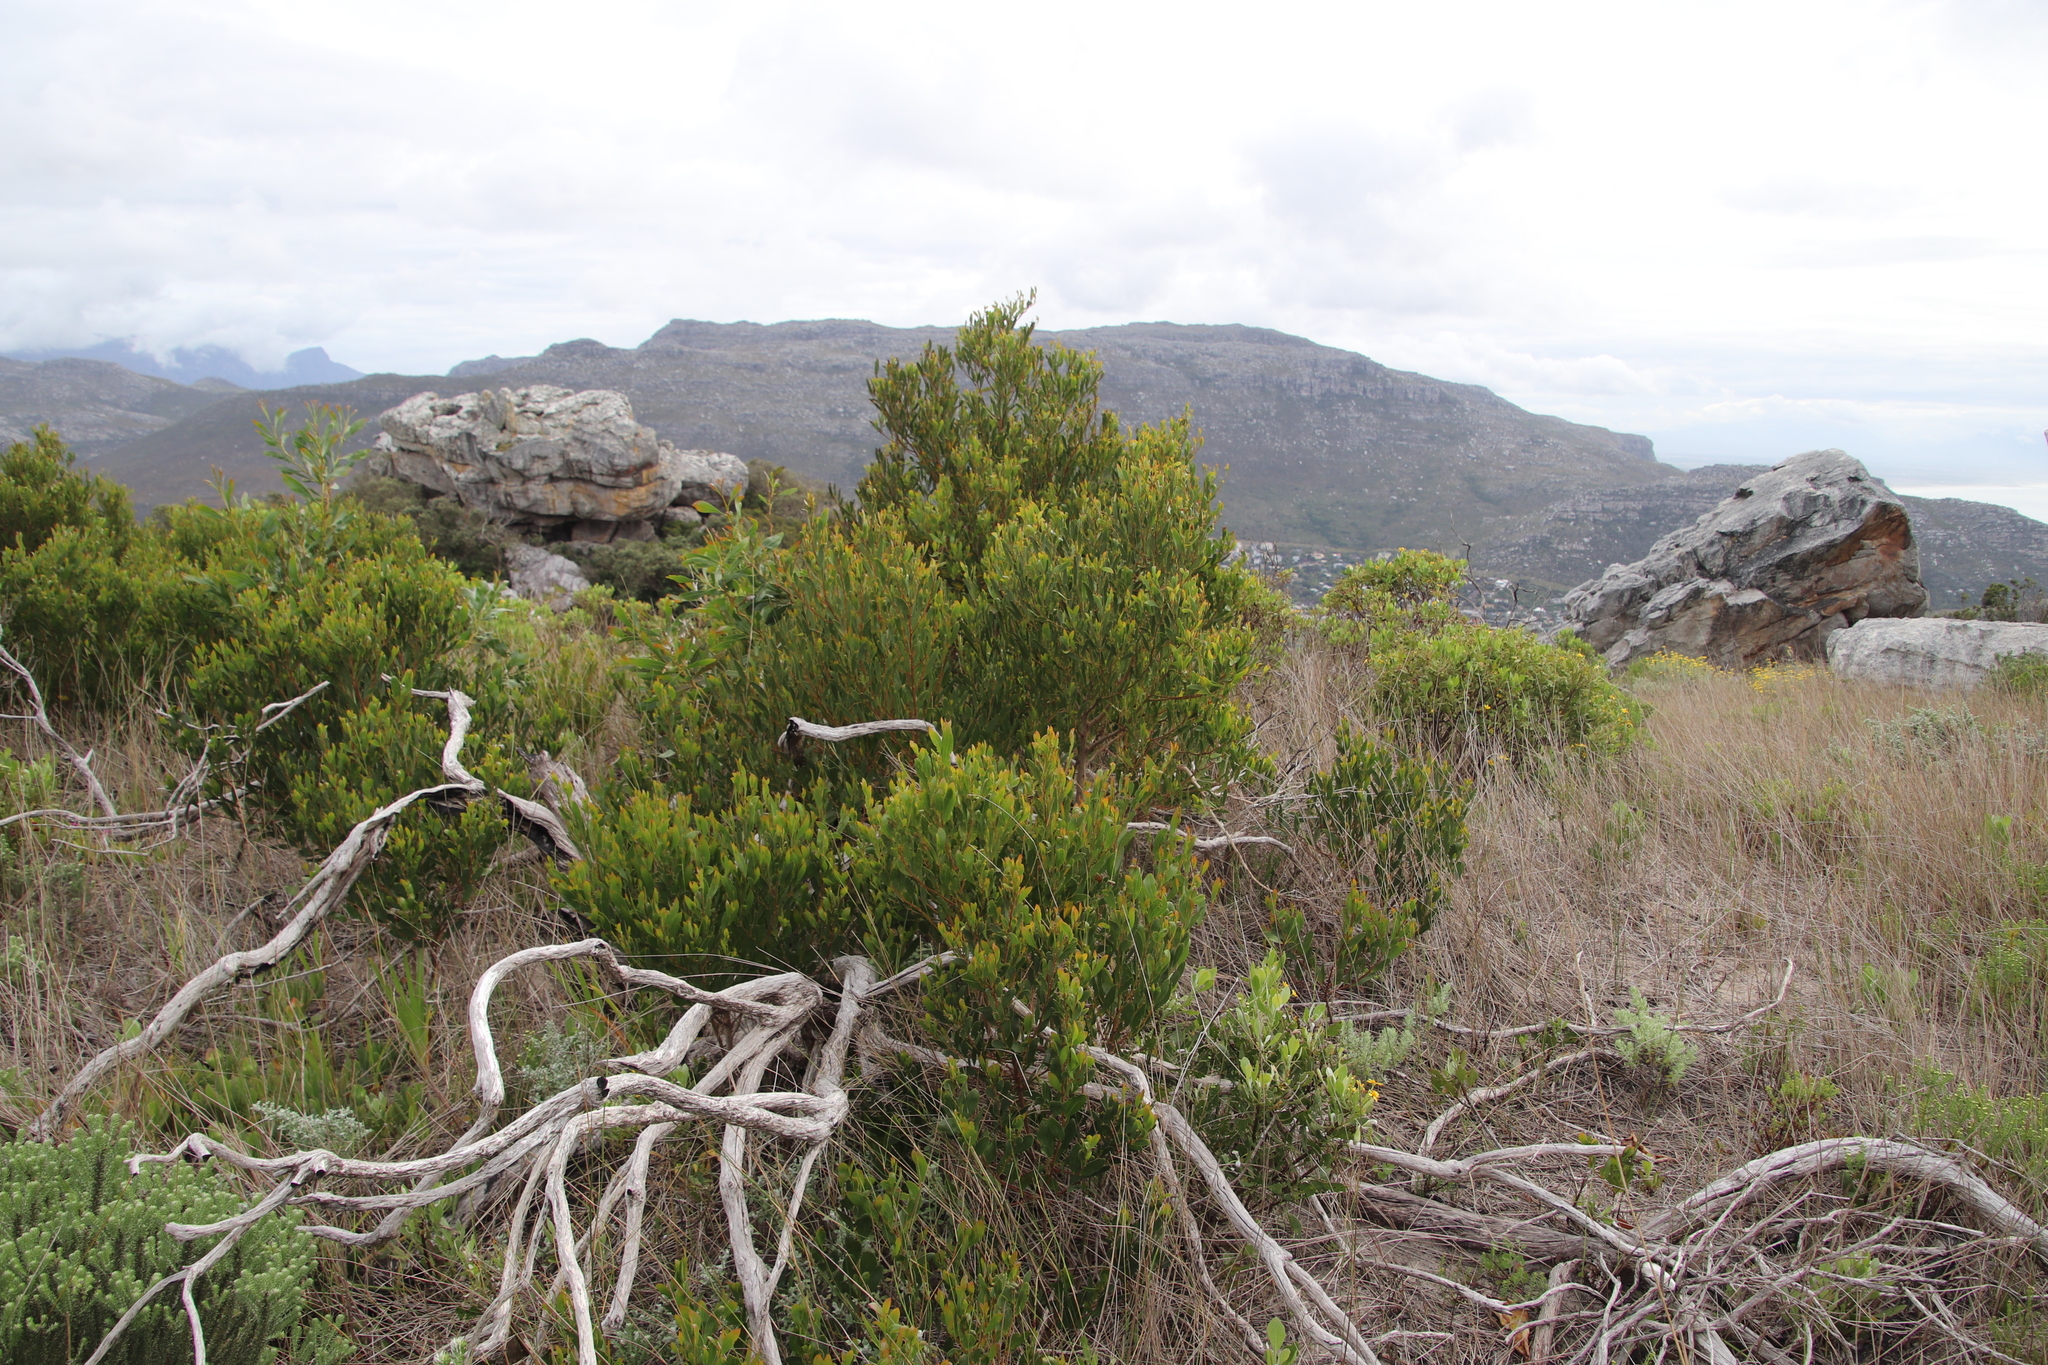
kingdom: Plantae
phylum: Tracheophyta
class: Magnoliopsida
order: Fabales
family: Fabaceae
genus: Acacia
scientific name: Acacia cyclops
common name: Coastal wattle
